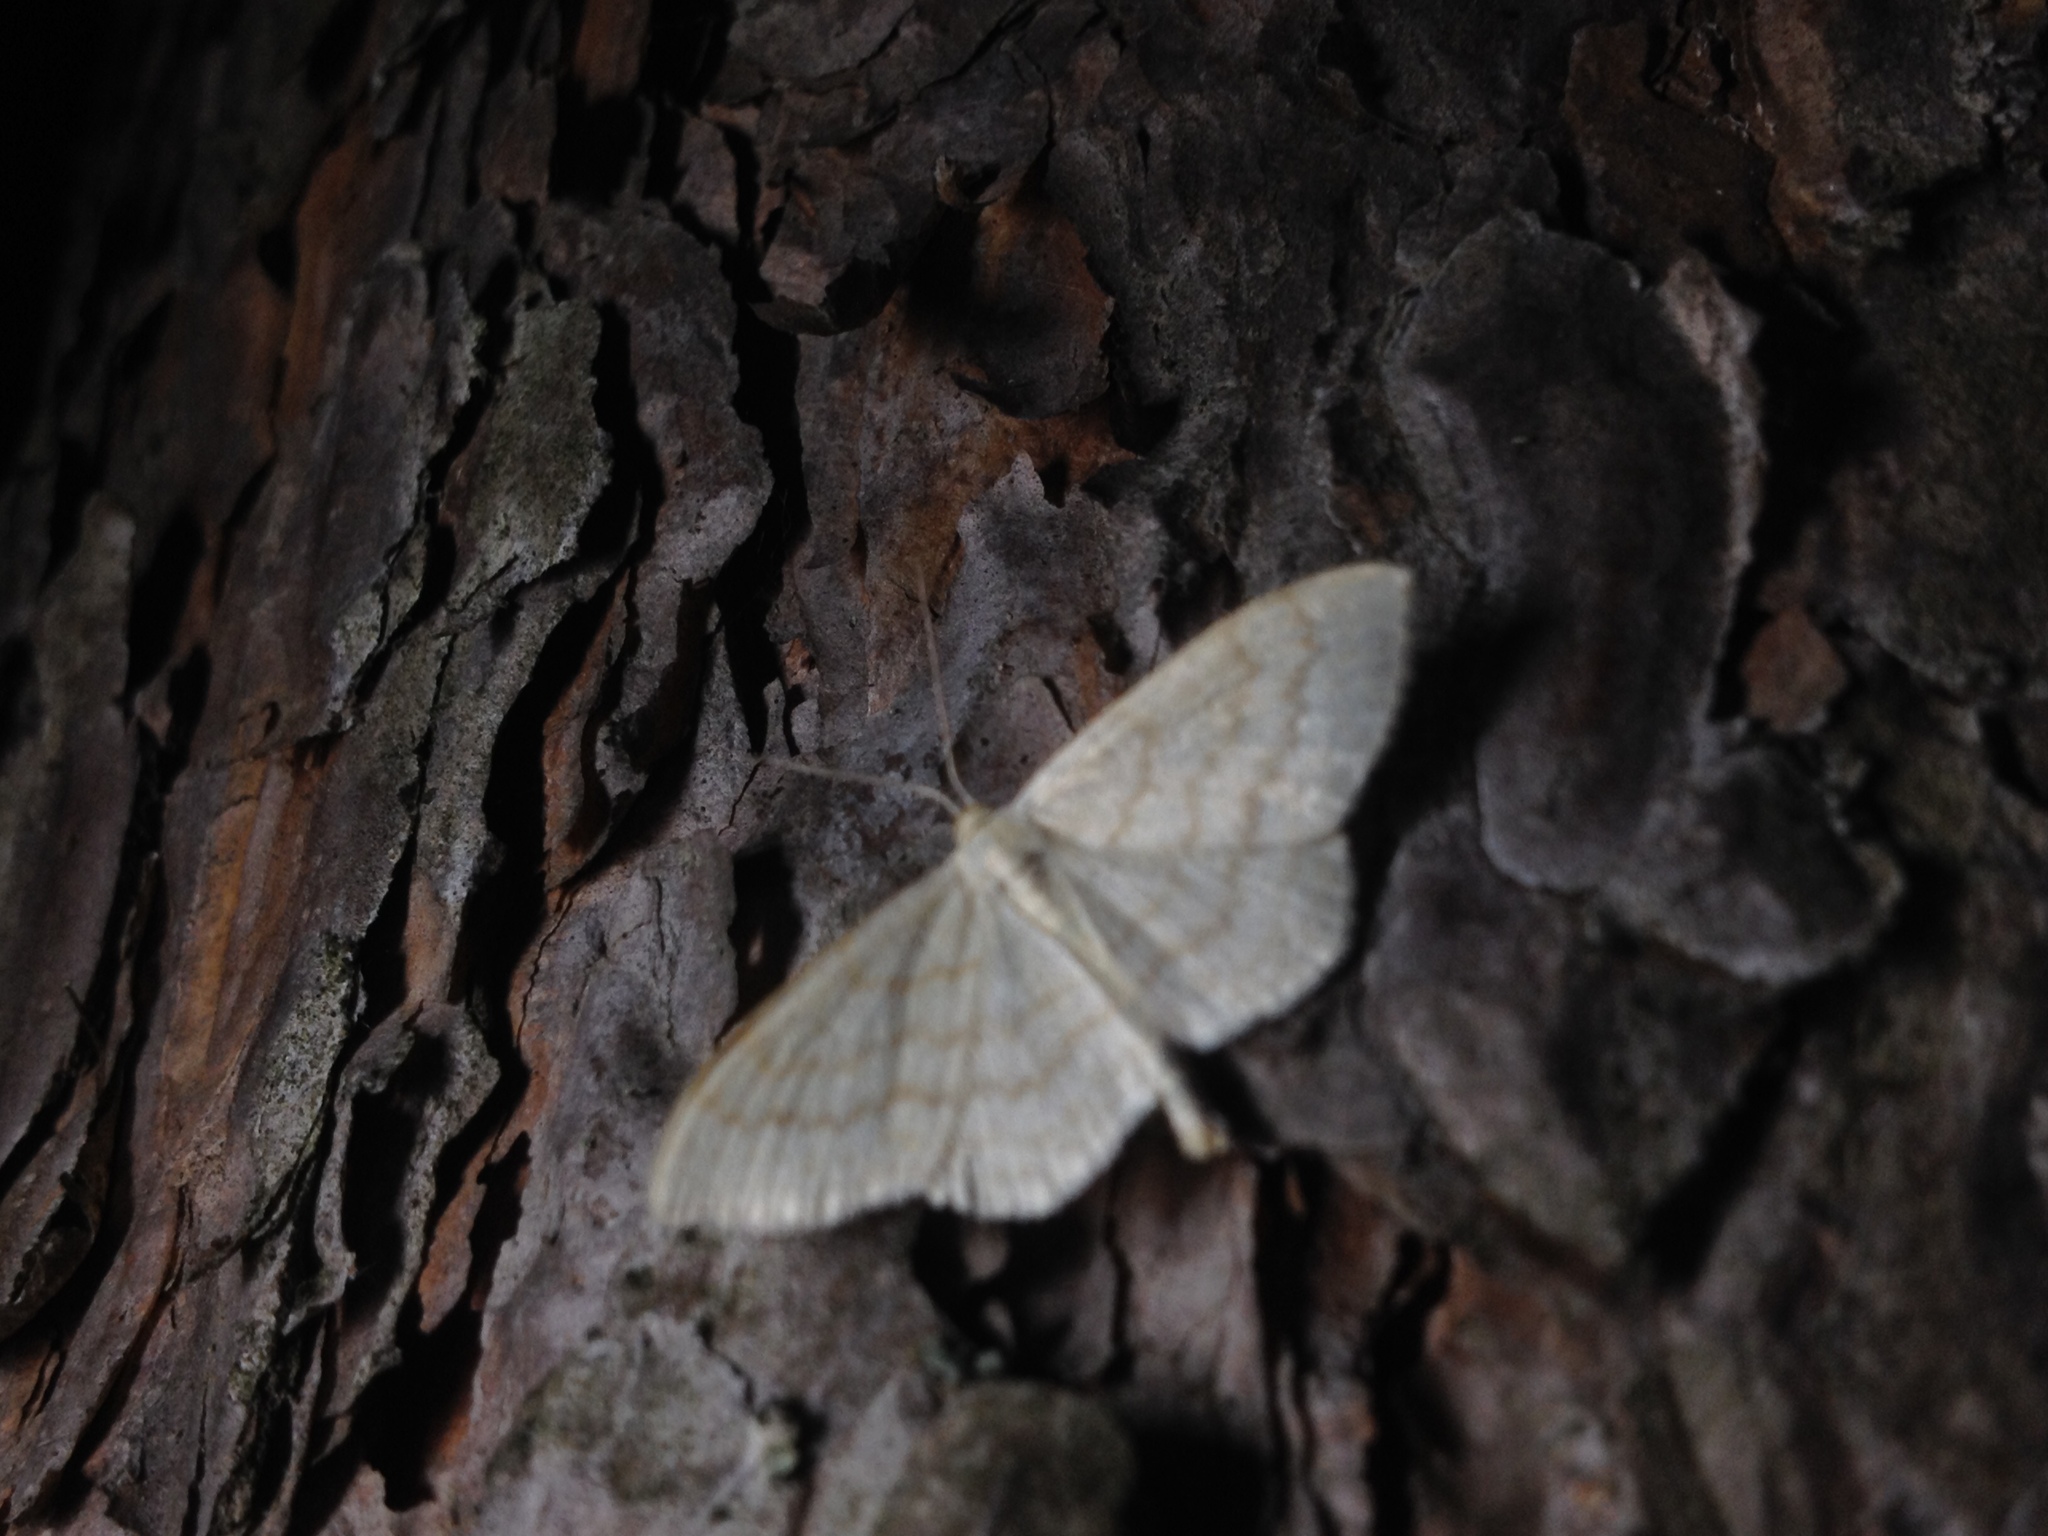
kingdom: Animalia
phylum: Arthropoda
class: Insecta
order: Lepidoptera
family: Geometridae
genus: Scopula
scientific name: Scopula floslactata
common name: Cream wave
